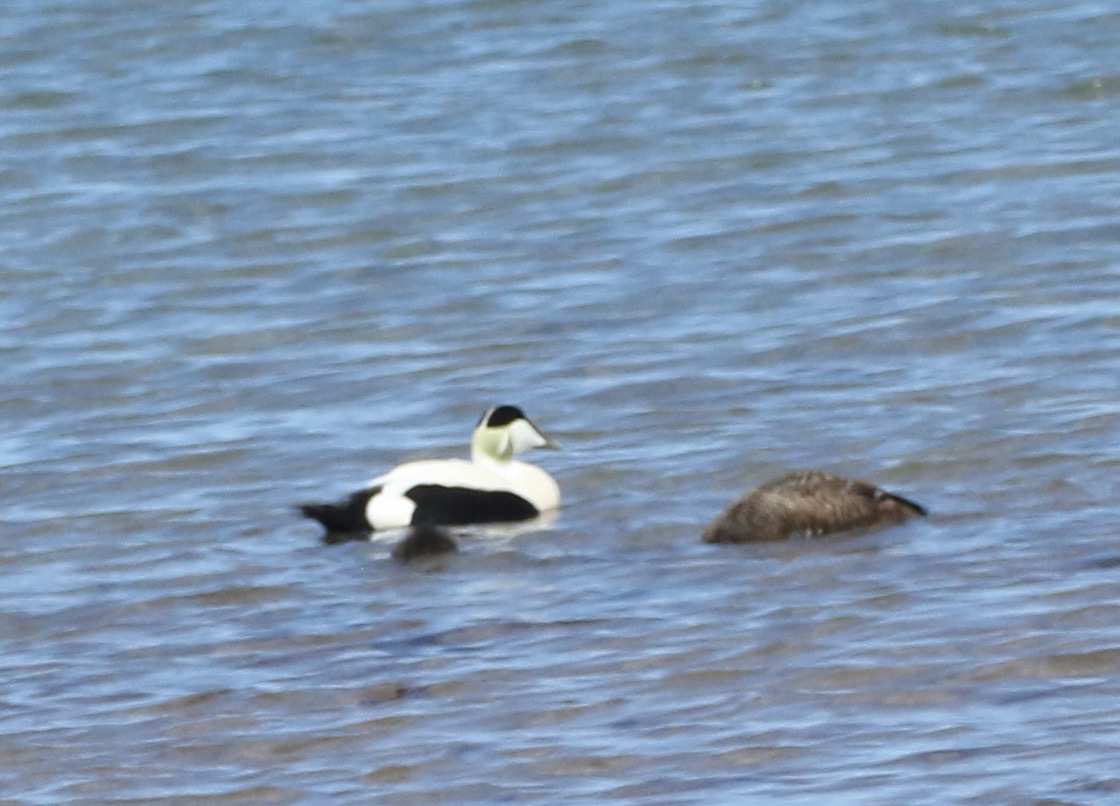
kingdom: Animalia
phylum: Chordata
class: Aves
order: Anseriformes
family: Anatidae
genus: Somateria
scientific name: Somateria mollissima
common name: Common eider
